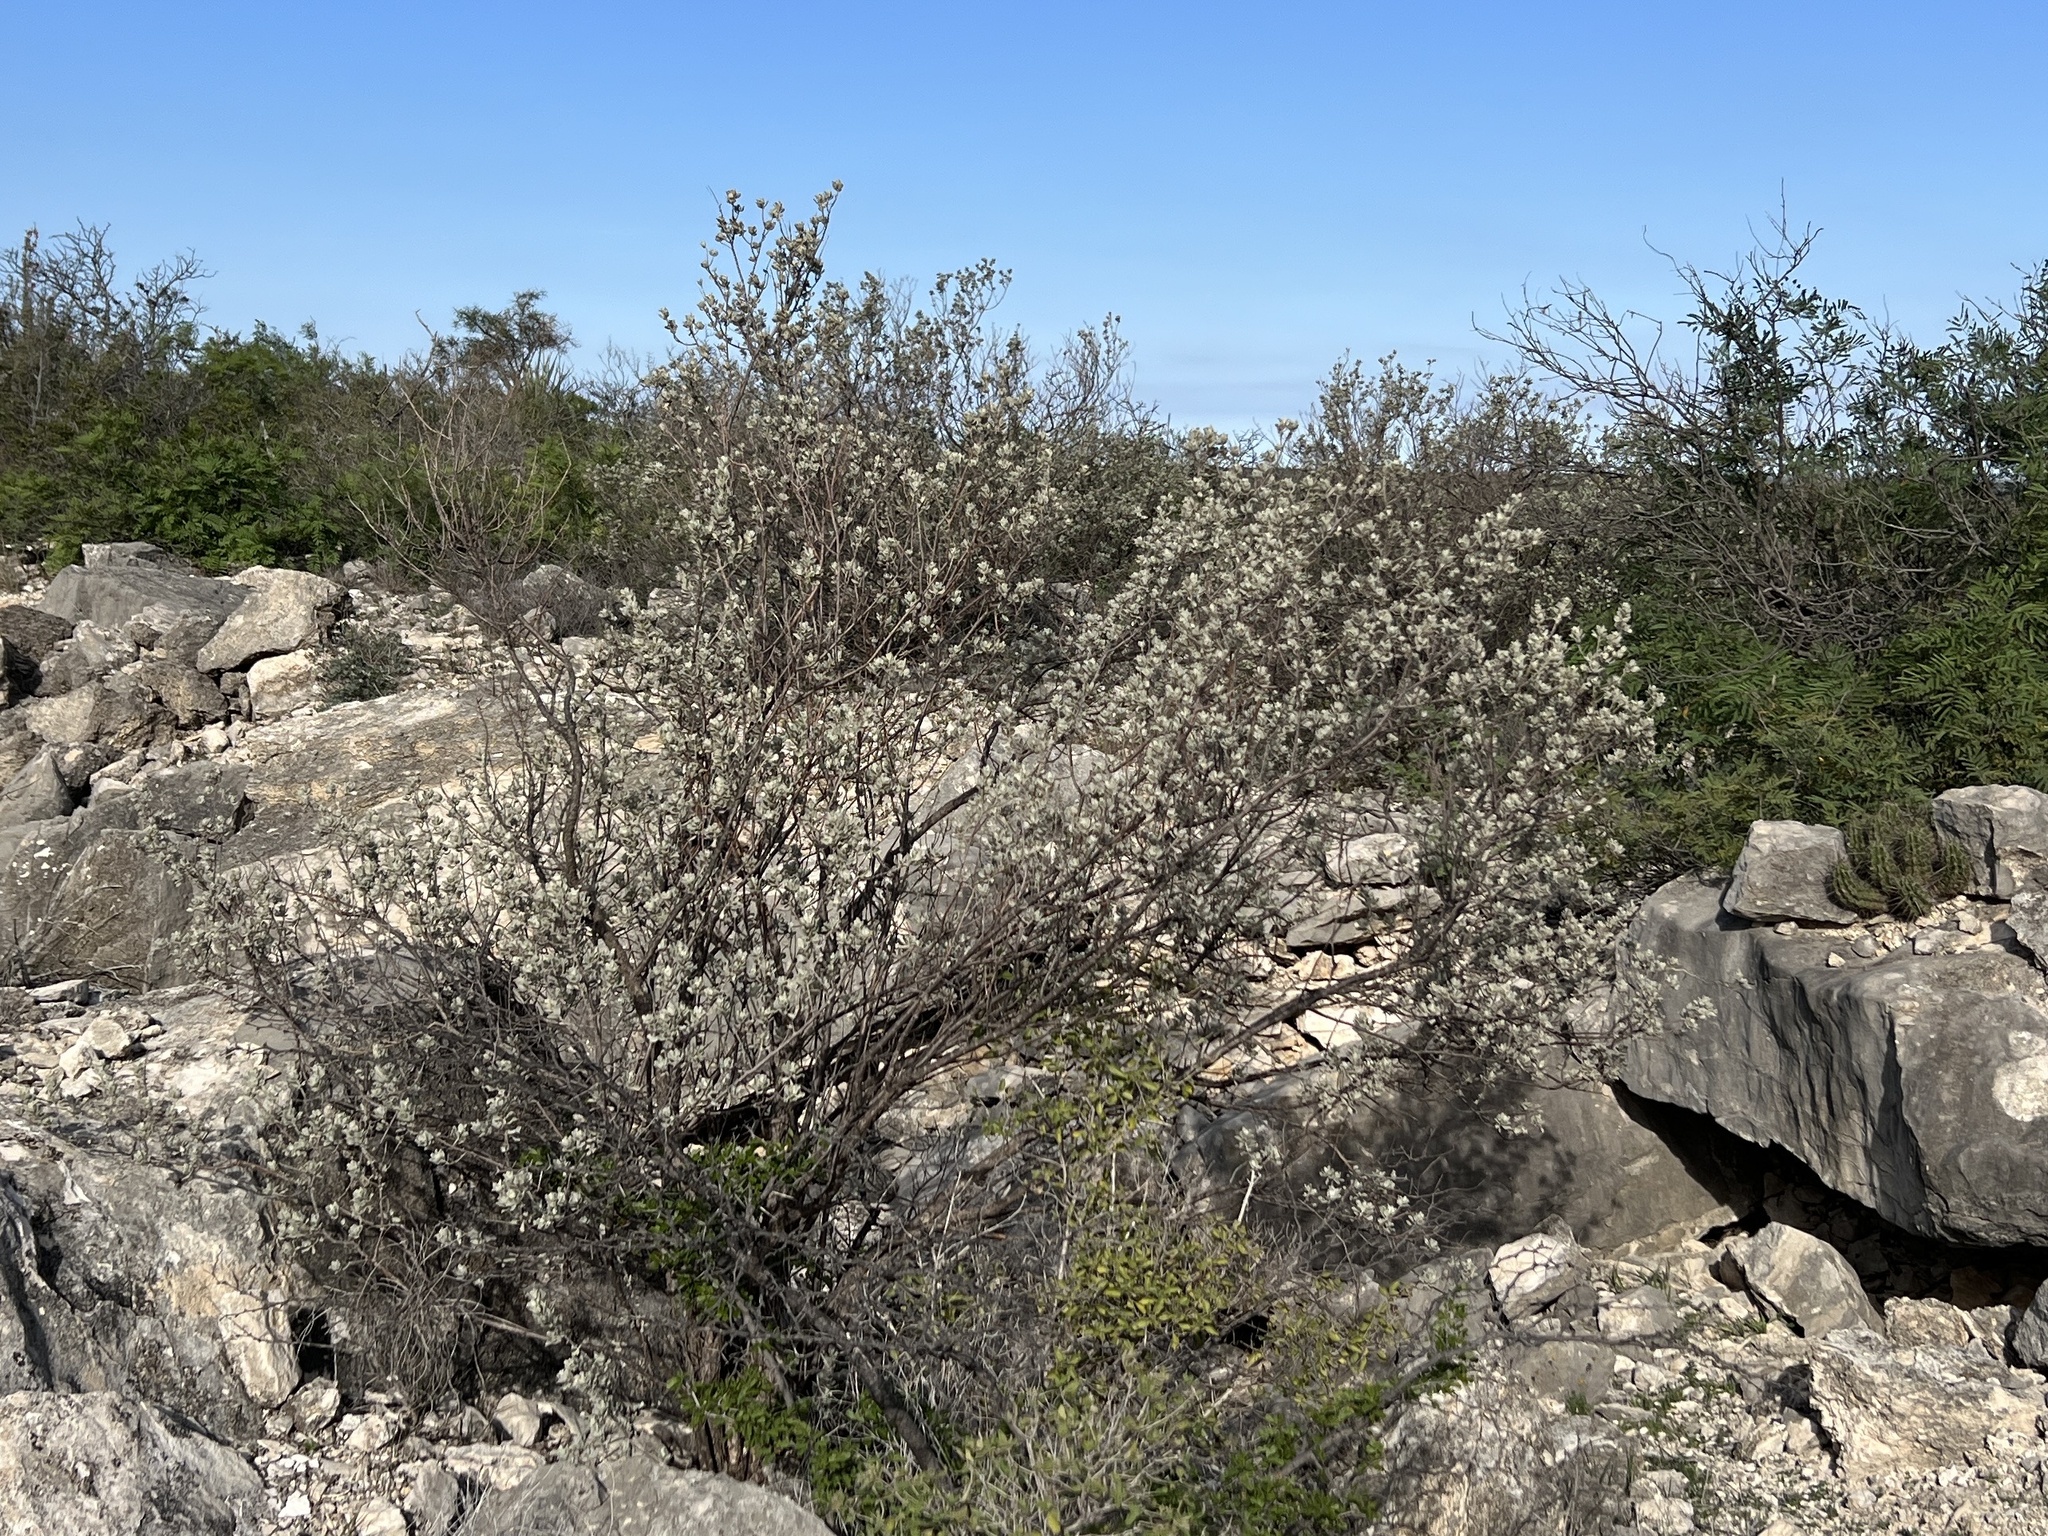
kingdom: Plantae
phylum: Tracheophyta
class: Magnoliopsida
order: Lamiales
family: Scrophulariaceae
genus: Leucophyllum
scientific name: Leucophyllum frutescens
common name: Texas silverleaf
